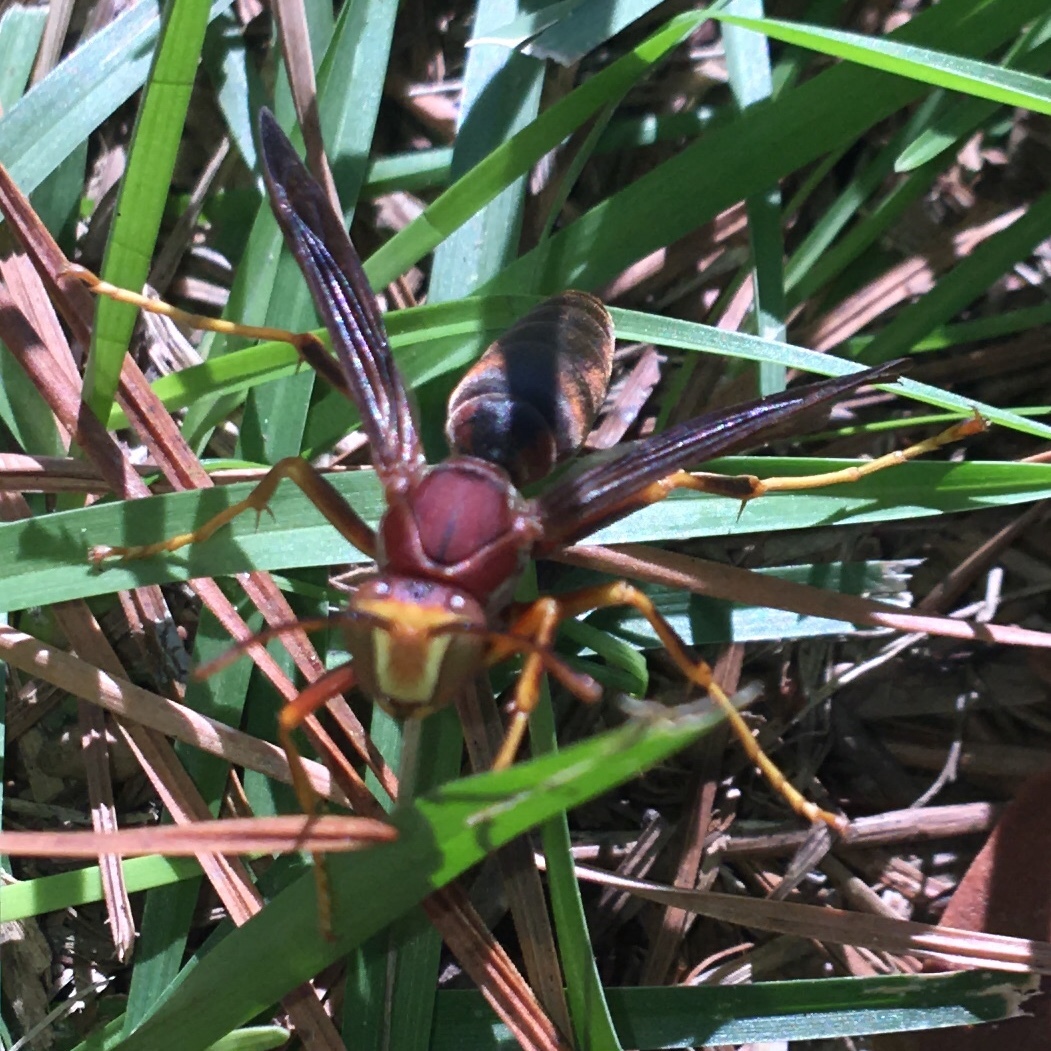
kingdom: Animalia
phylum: Arthropoda
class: Insecta
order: Hymenoptera
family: Eumenidae
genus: Polistes
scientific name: Polistes metricus
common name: Metric paper wasp
